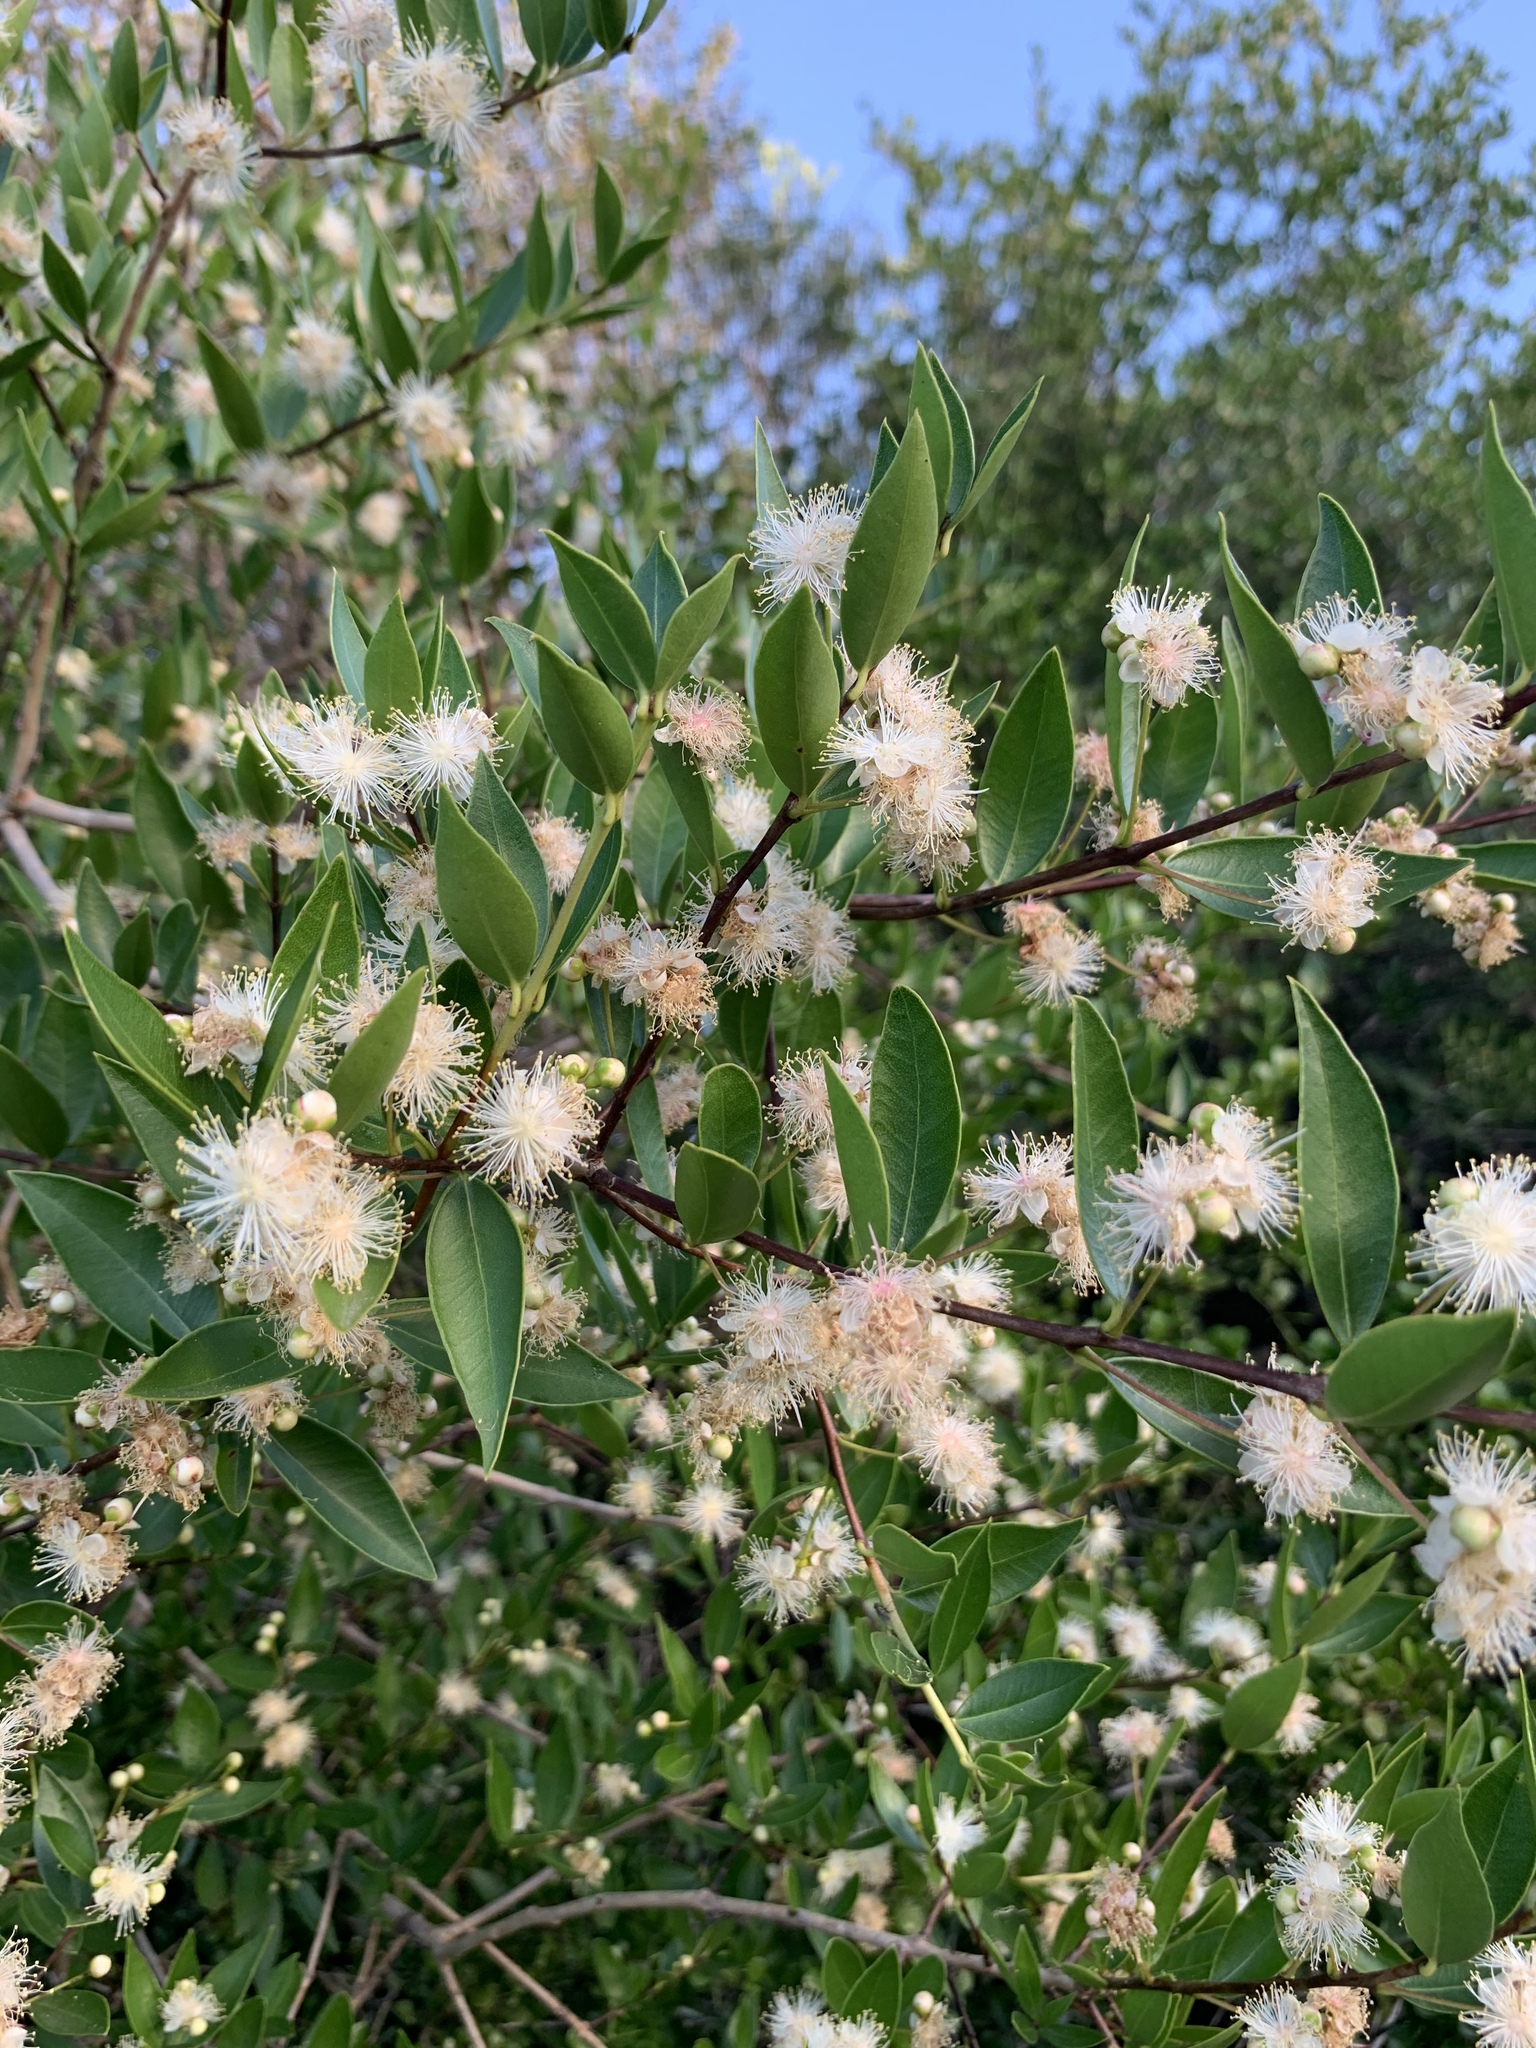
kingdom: Plantae
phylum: Tracheophyta
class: Magnoliopsida
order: Myrtales
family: Myrtaceae
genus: Myrcianthes
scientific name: Myrcianthes cisplatensis
